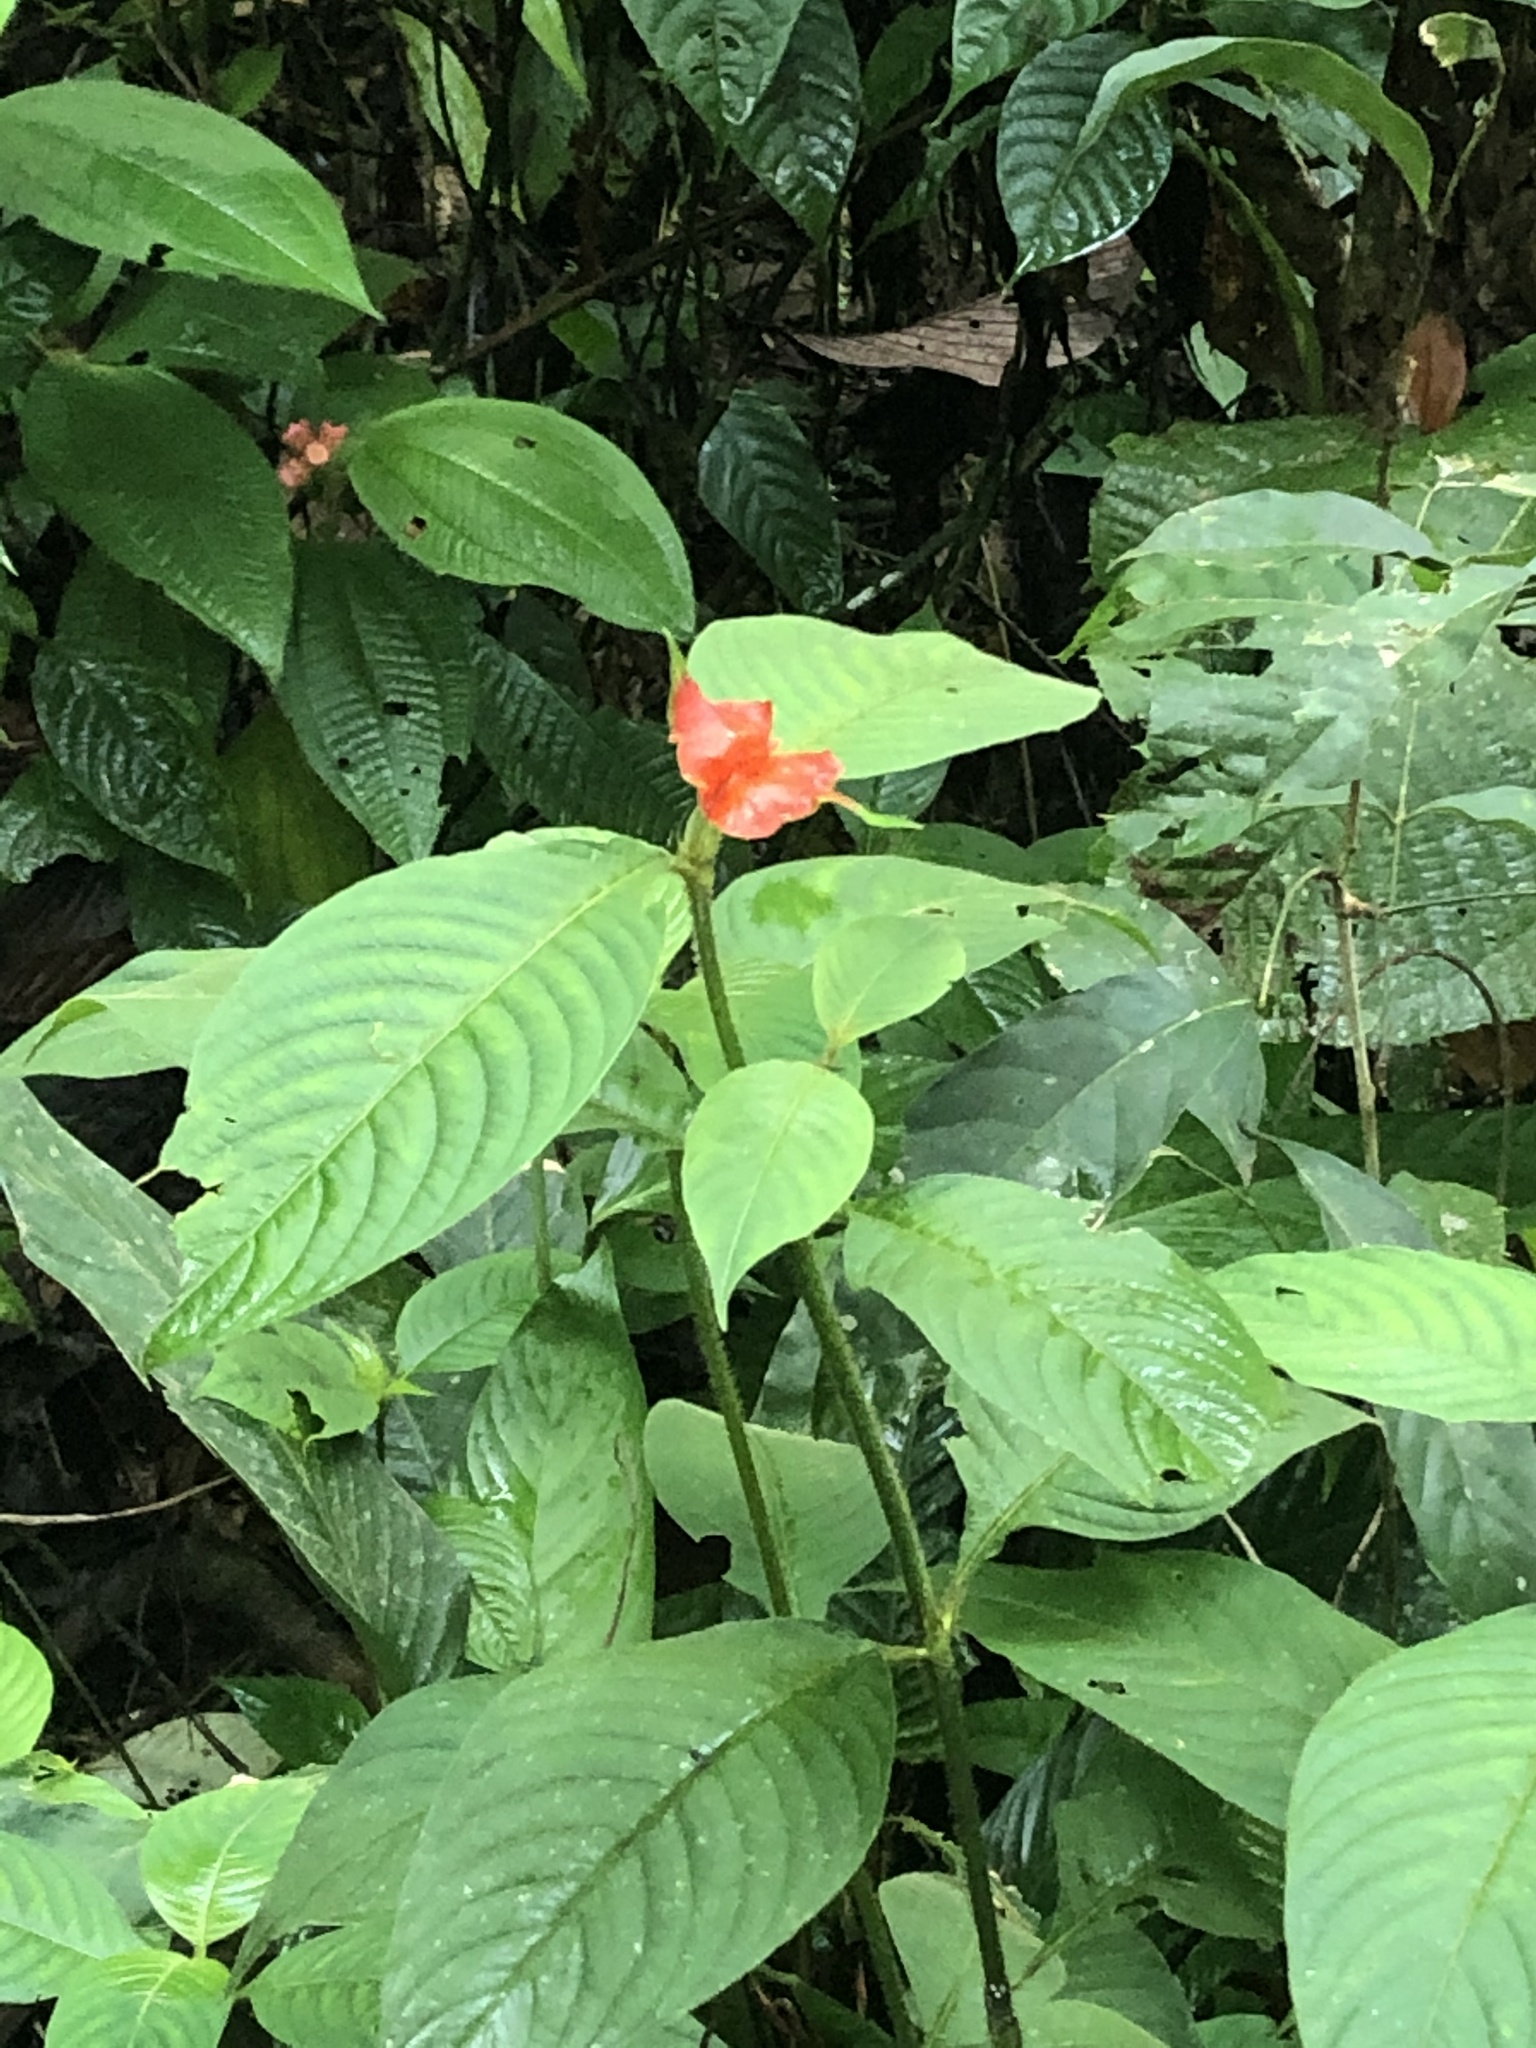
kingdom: Plantae
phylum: Tracheophyta
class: Magnoliopsida
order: Gentianales
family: Rubiaceae
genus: Palicourea
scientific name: Palicourea tomentosa
